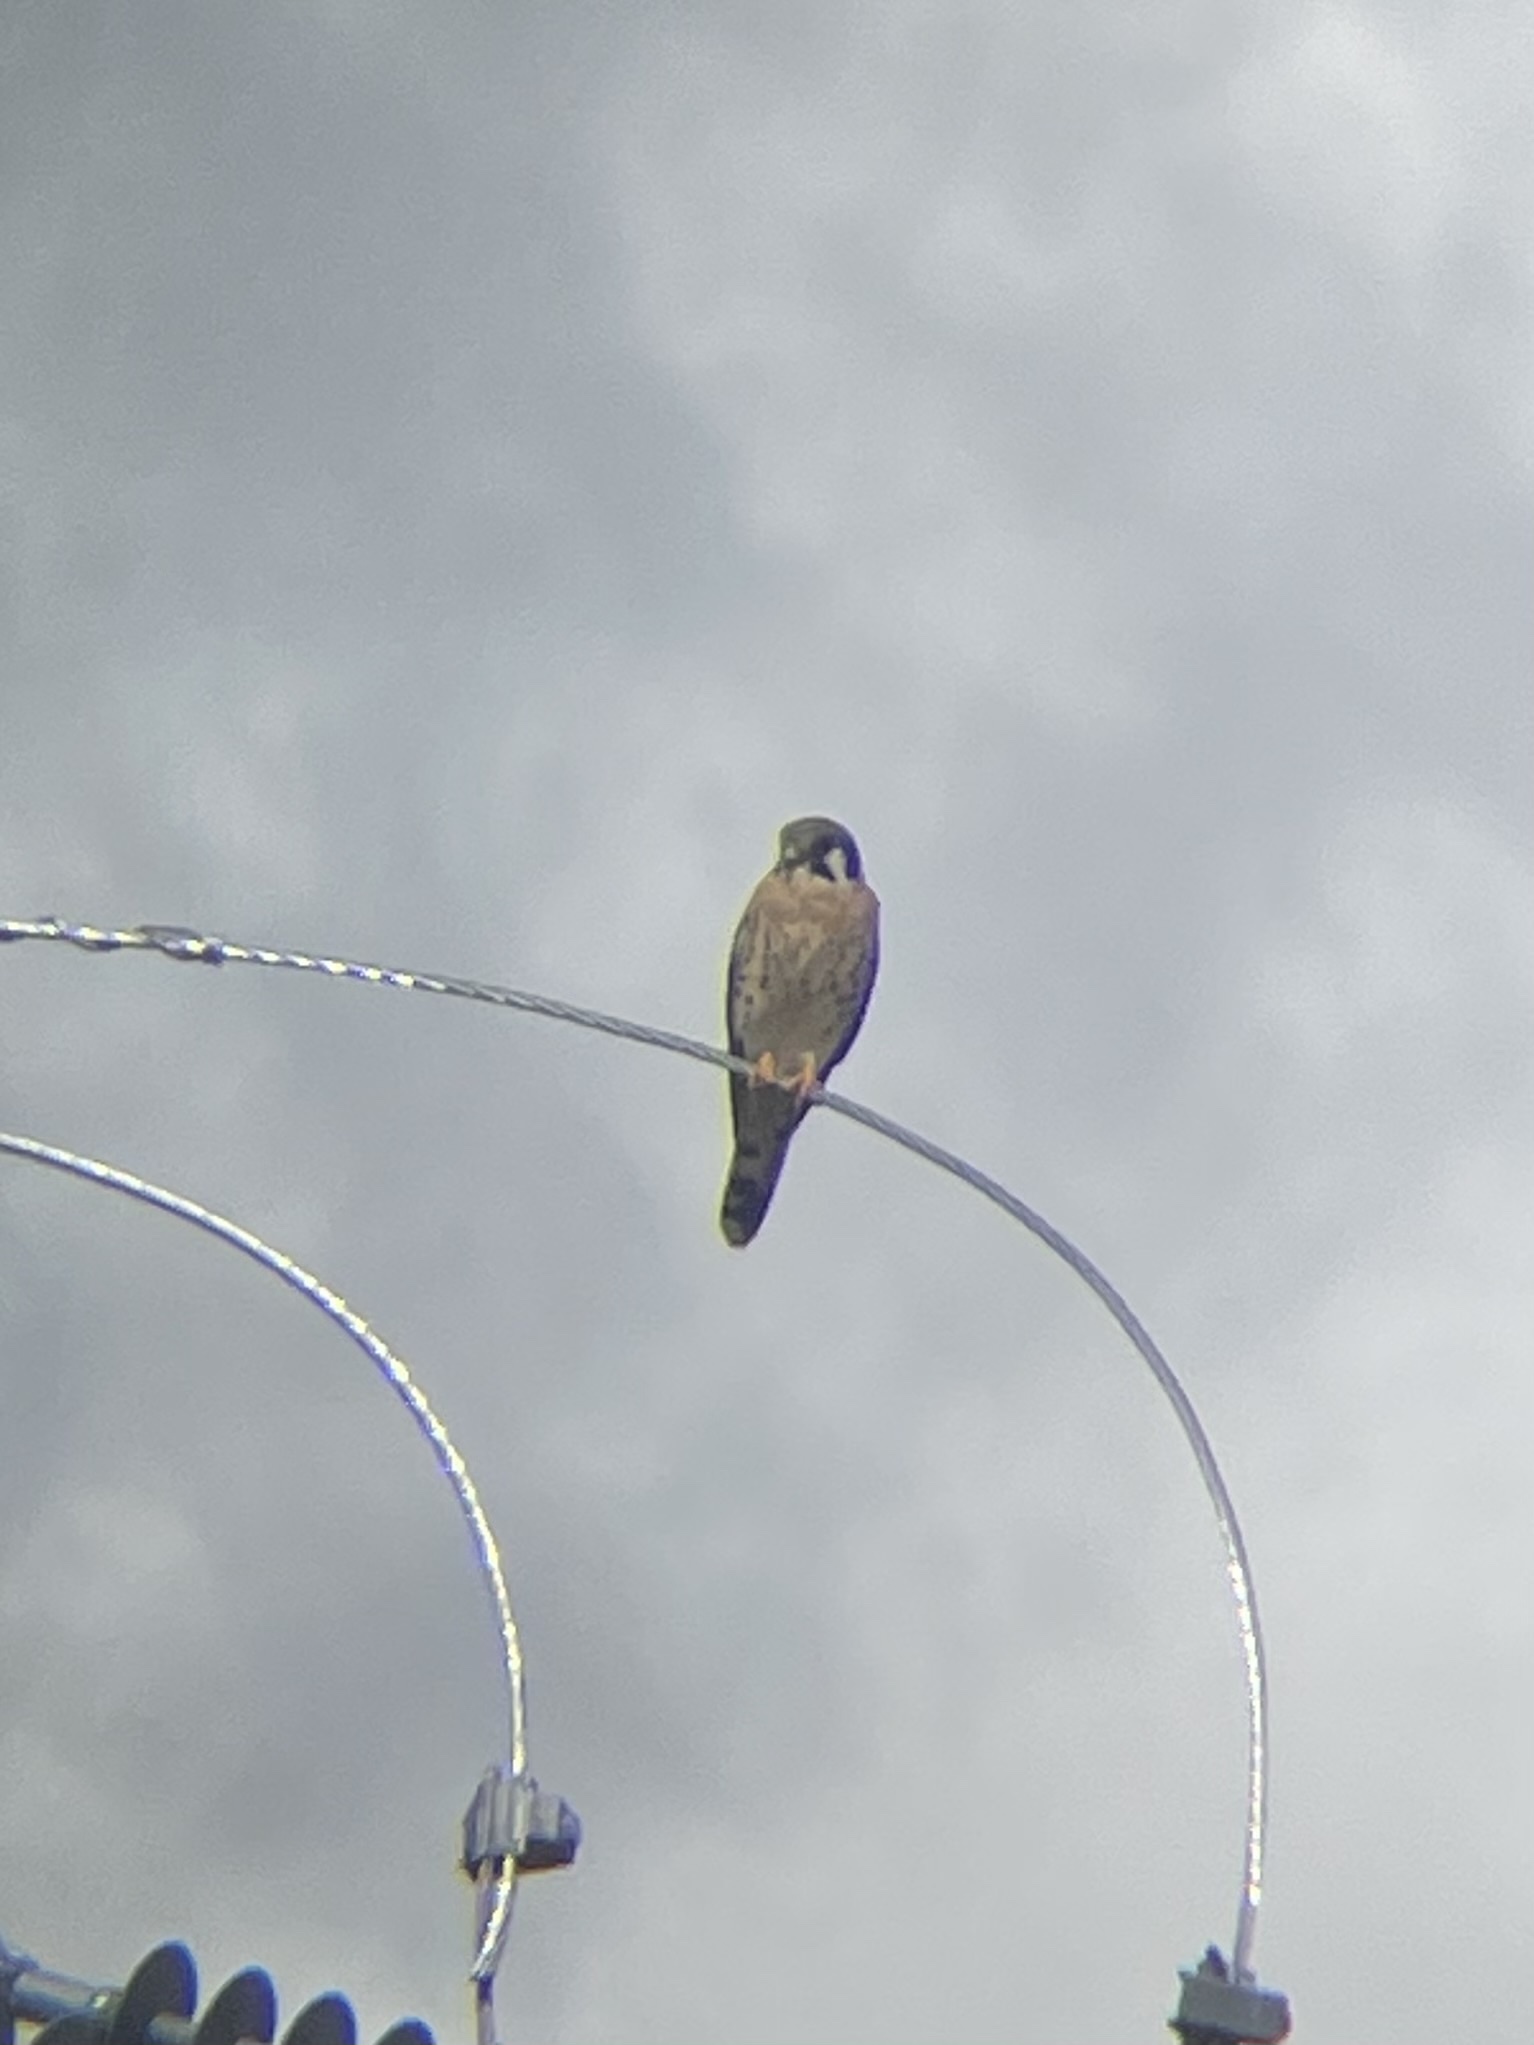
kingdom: Animalia
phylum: Chordata
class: Aves
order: Falconiformes
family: Falconidae
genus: Falco
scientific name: Falco sparverius
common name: American kestrel
